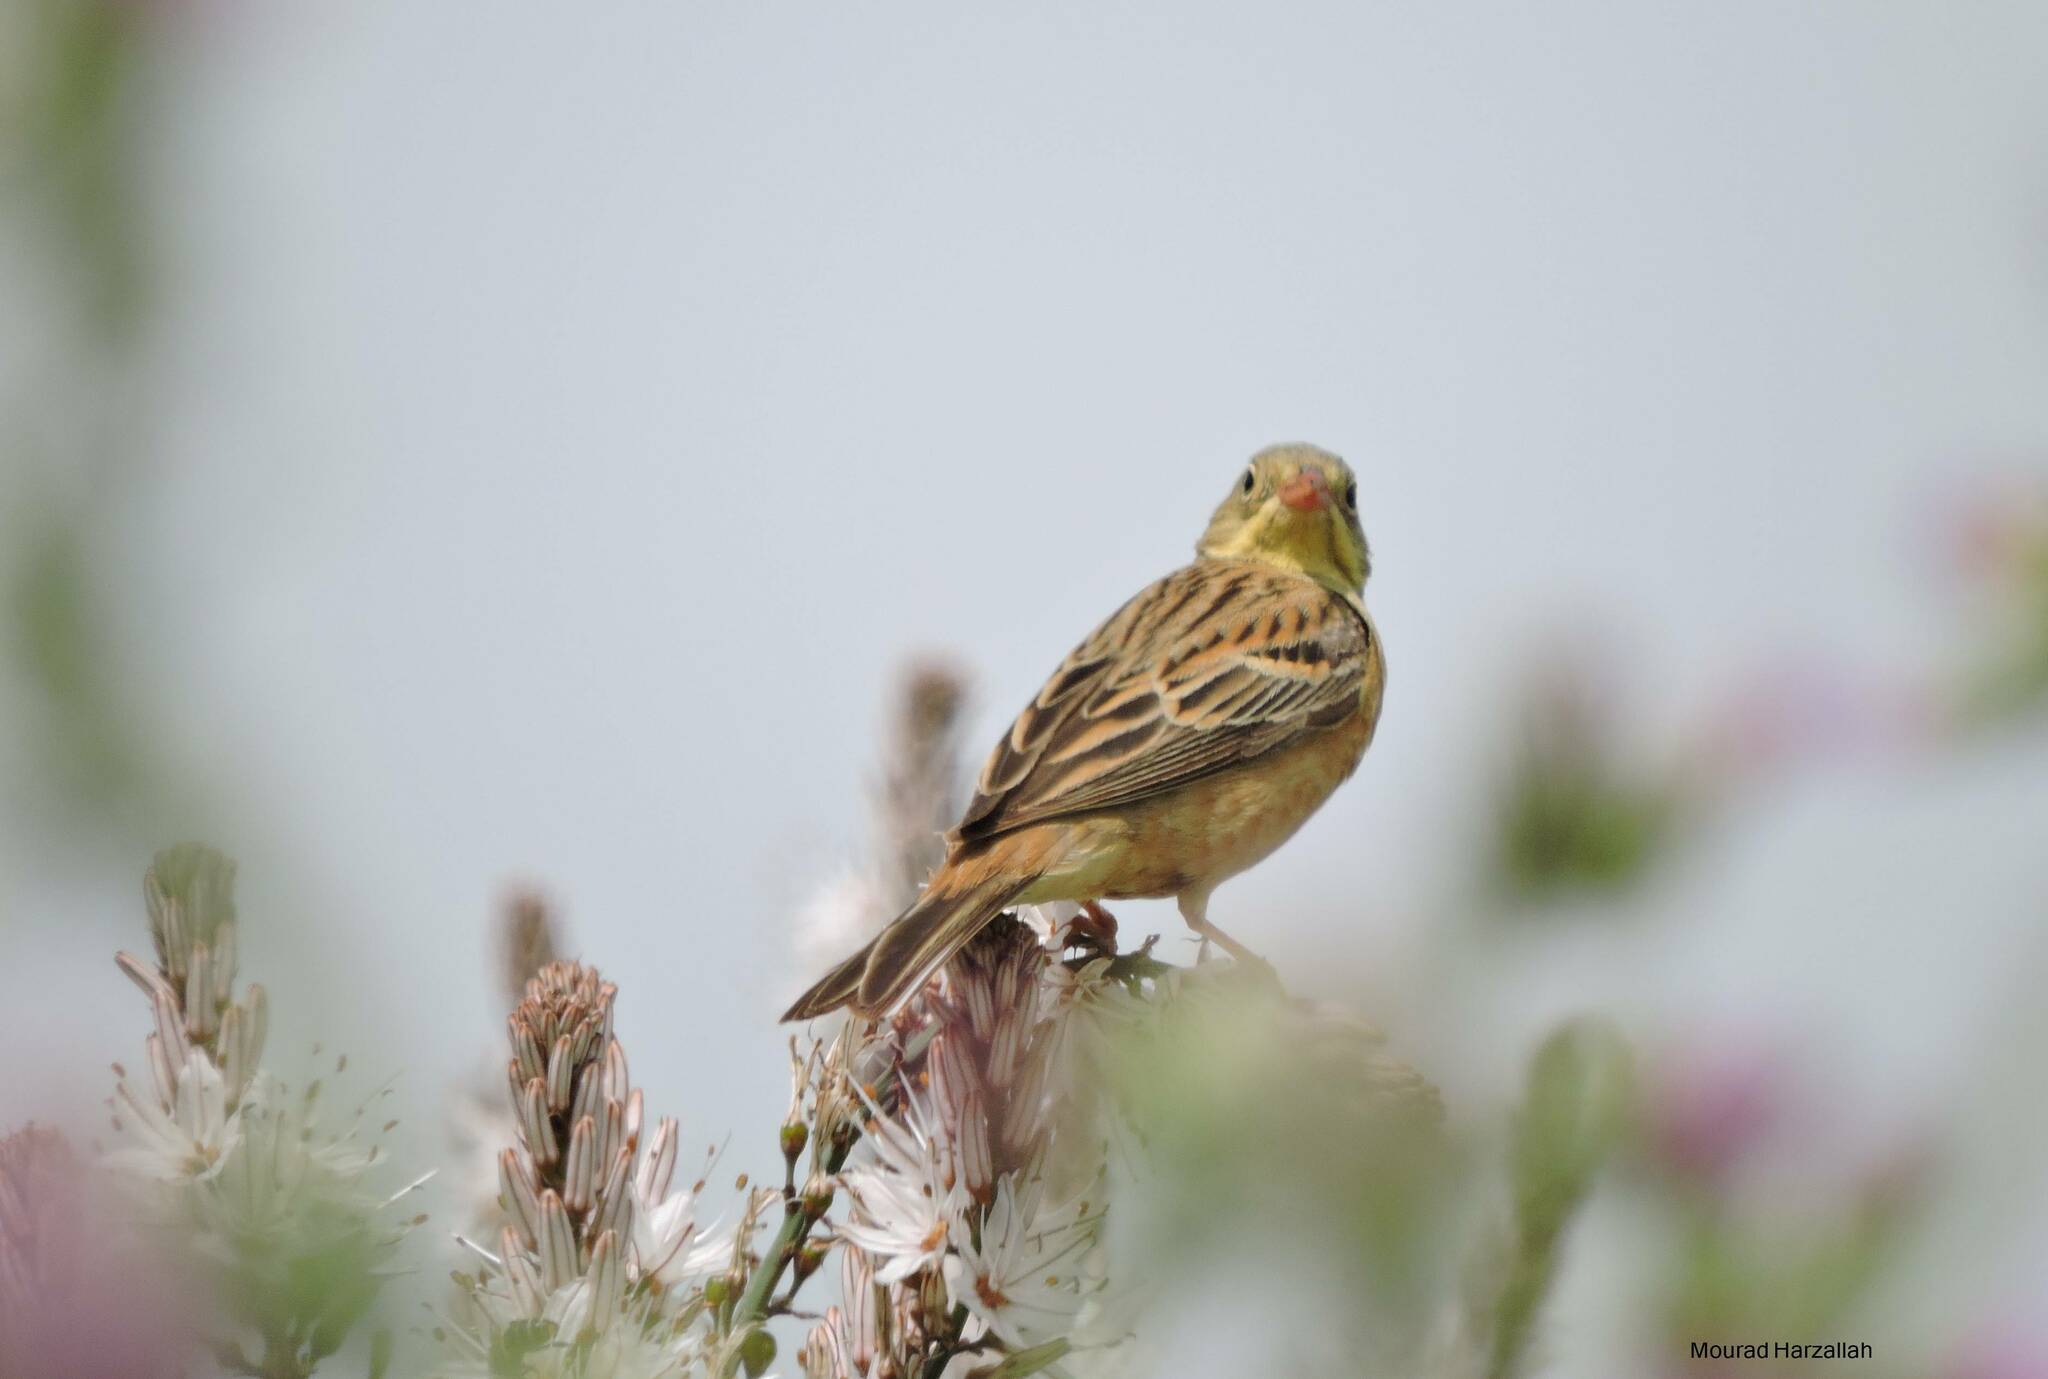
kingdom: Animalia
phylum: Chordata
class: Aves
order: Passeriformes
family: Emberizidae
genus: Emberiza
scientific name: Emberiza hortulana
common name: Ortolan bunting
